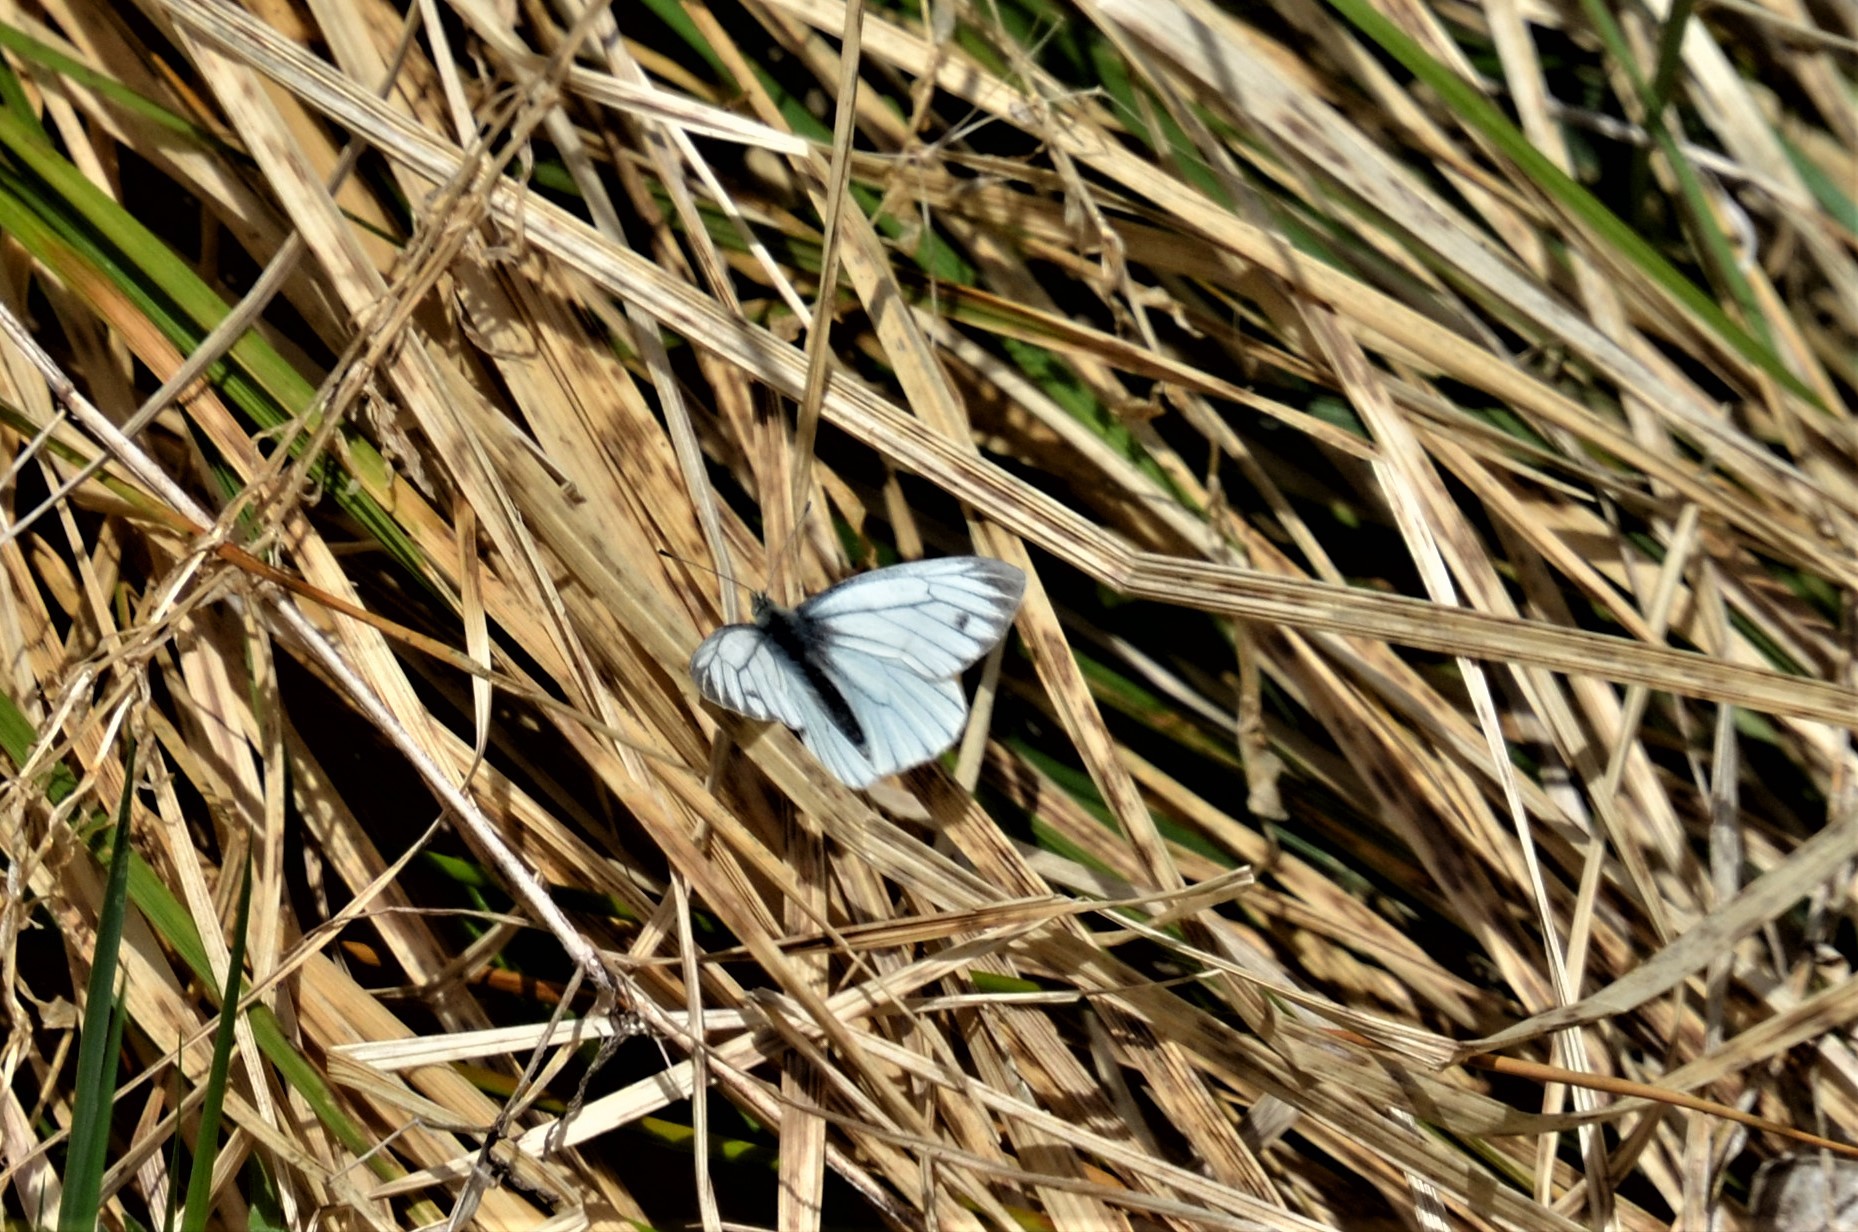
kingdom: Animalia
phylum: Arthropoda
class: Insecta
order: Lepidoptera
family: Pieridae
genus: Pieris
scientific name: Pieris napi
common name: Green-veined white
